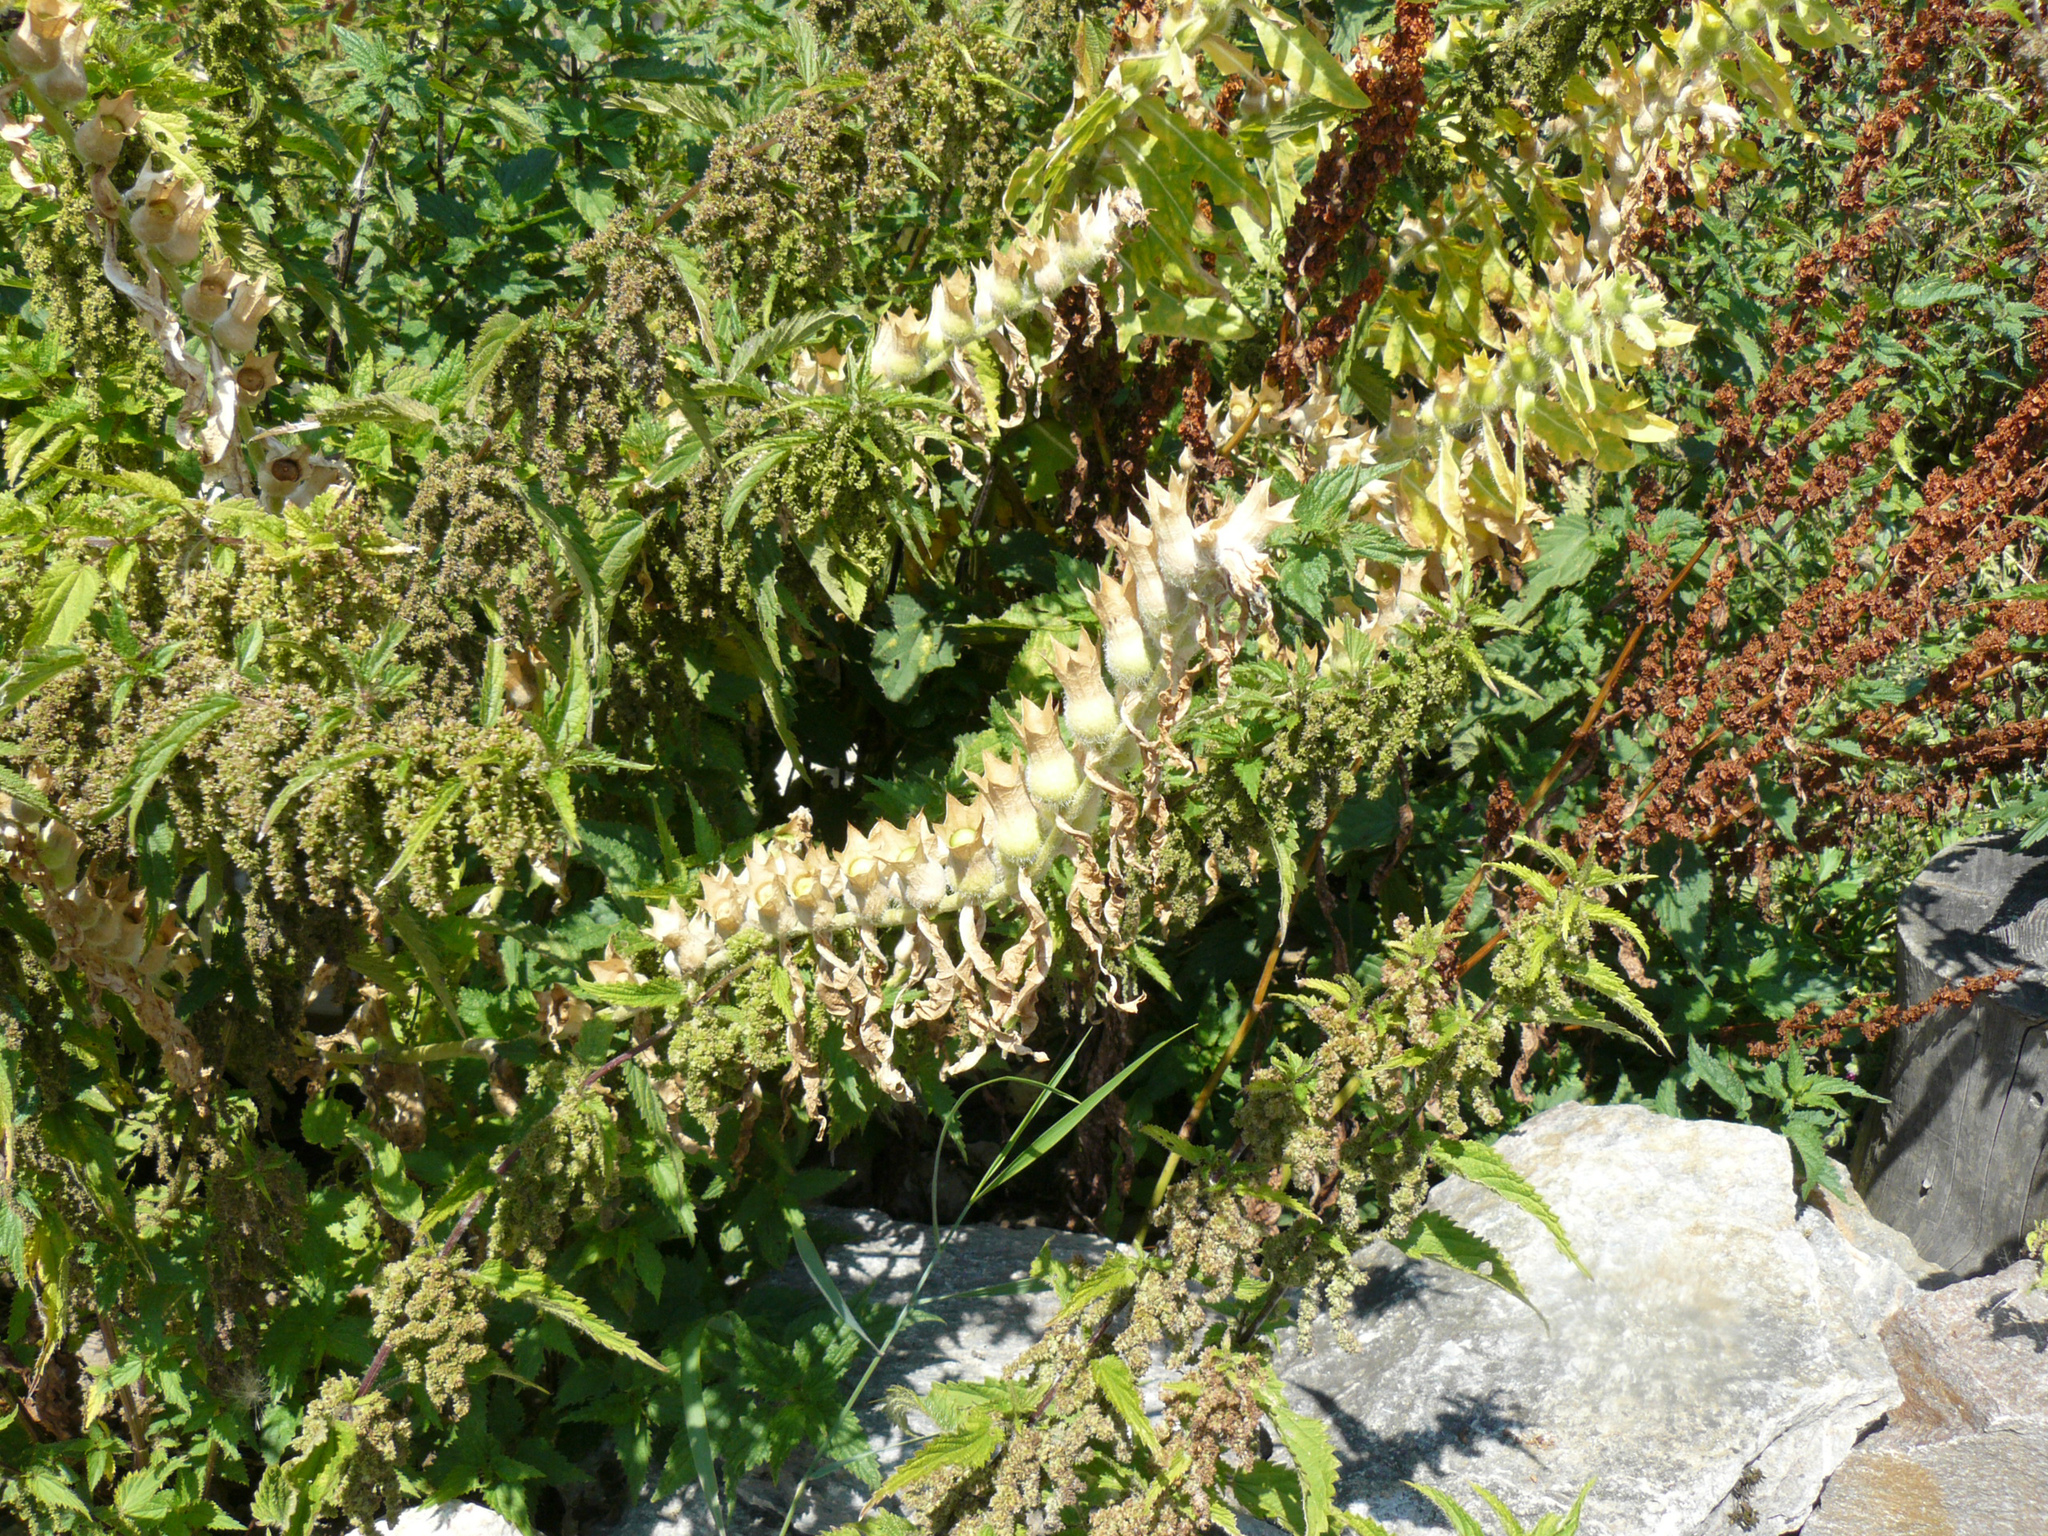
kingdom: Plantae
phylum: Tracheophyta
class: Magnoliopsida
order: Solanales
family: Solanaceae
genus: Hyoscyamus
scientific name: Hyoscyamus niger
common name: Henbane
